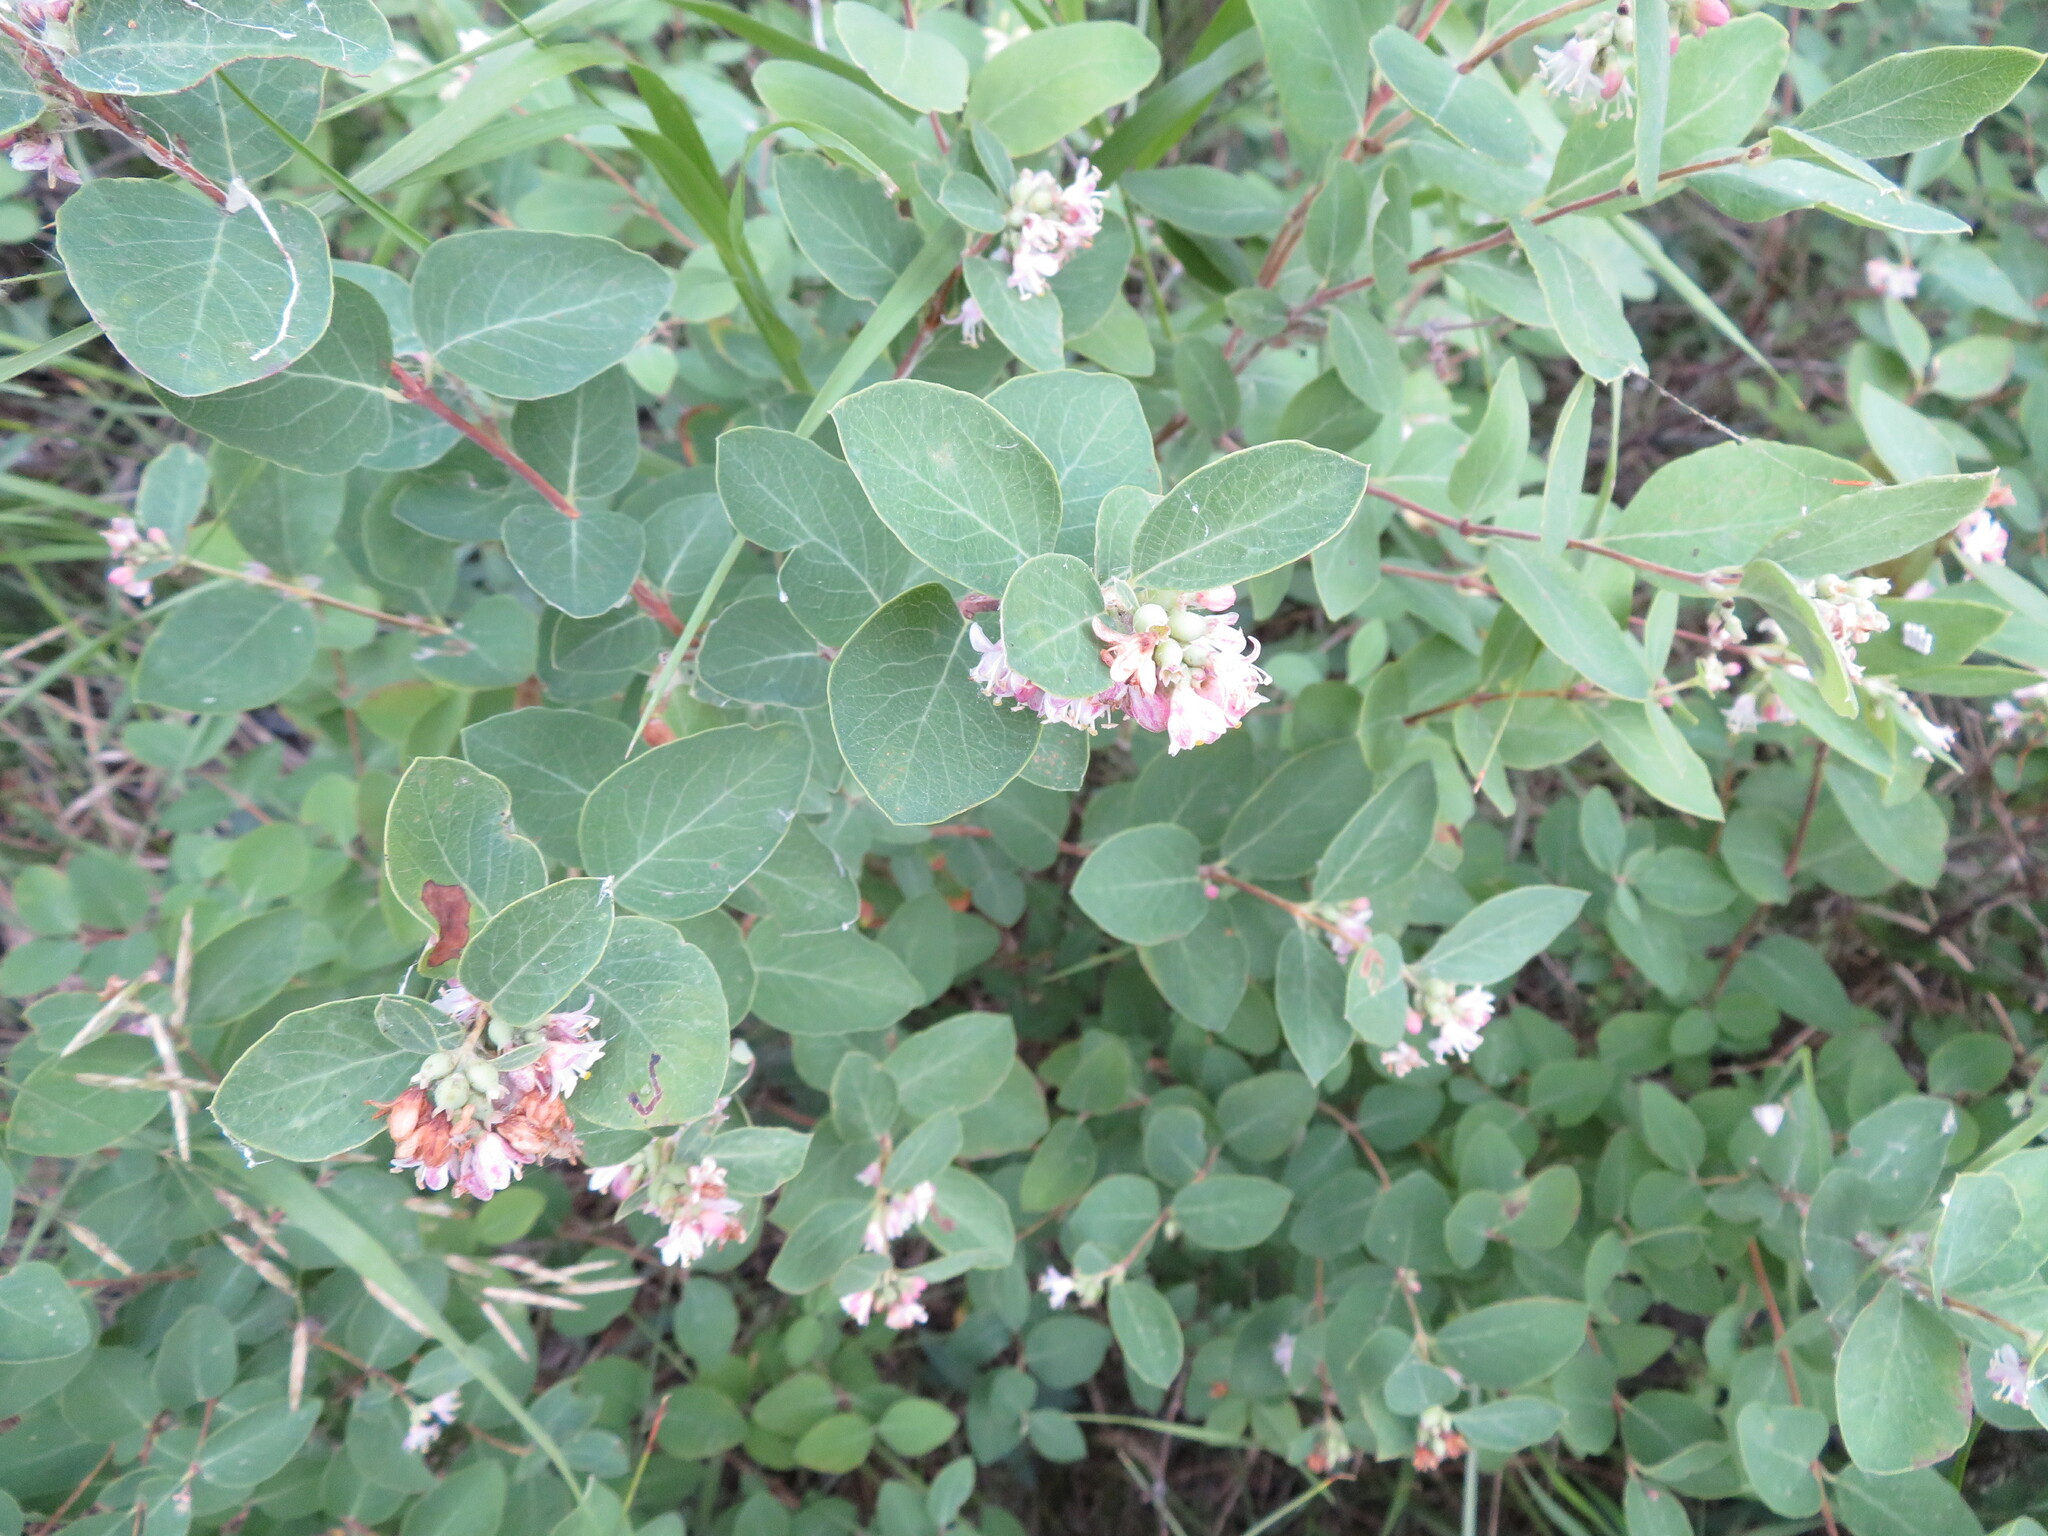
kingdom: Plantae
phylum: Tracheophyta
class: Magnoliopsida
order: Dipsacales
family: Caprifoliaceae
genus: Symphoricarpos
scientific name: Symphoricarpos occidentalis
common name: Wolfberry
